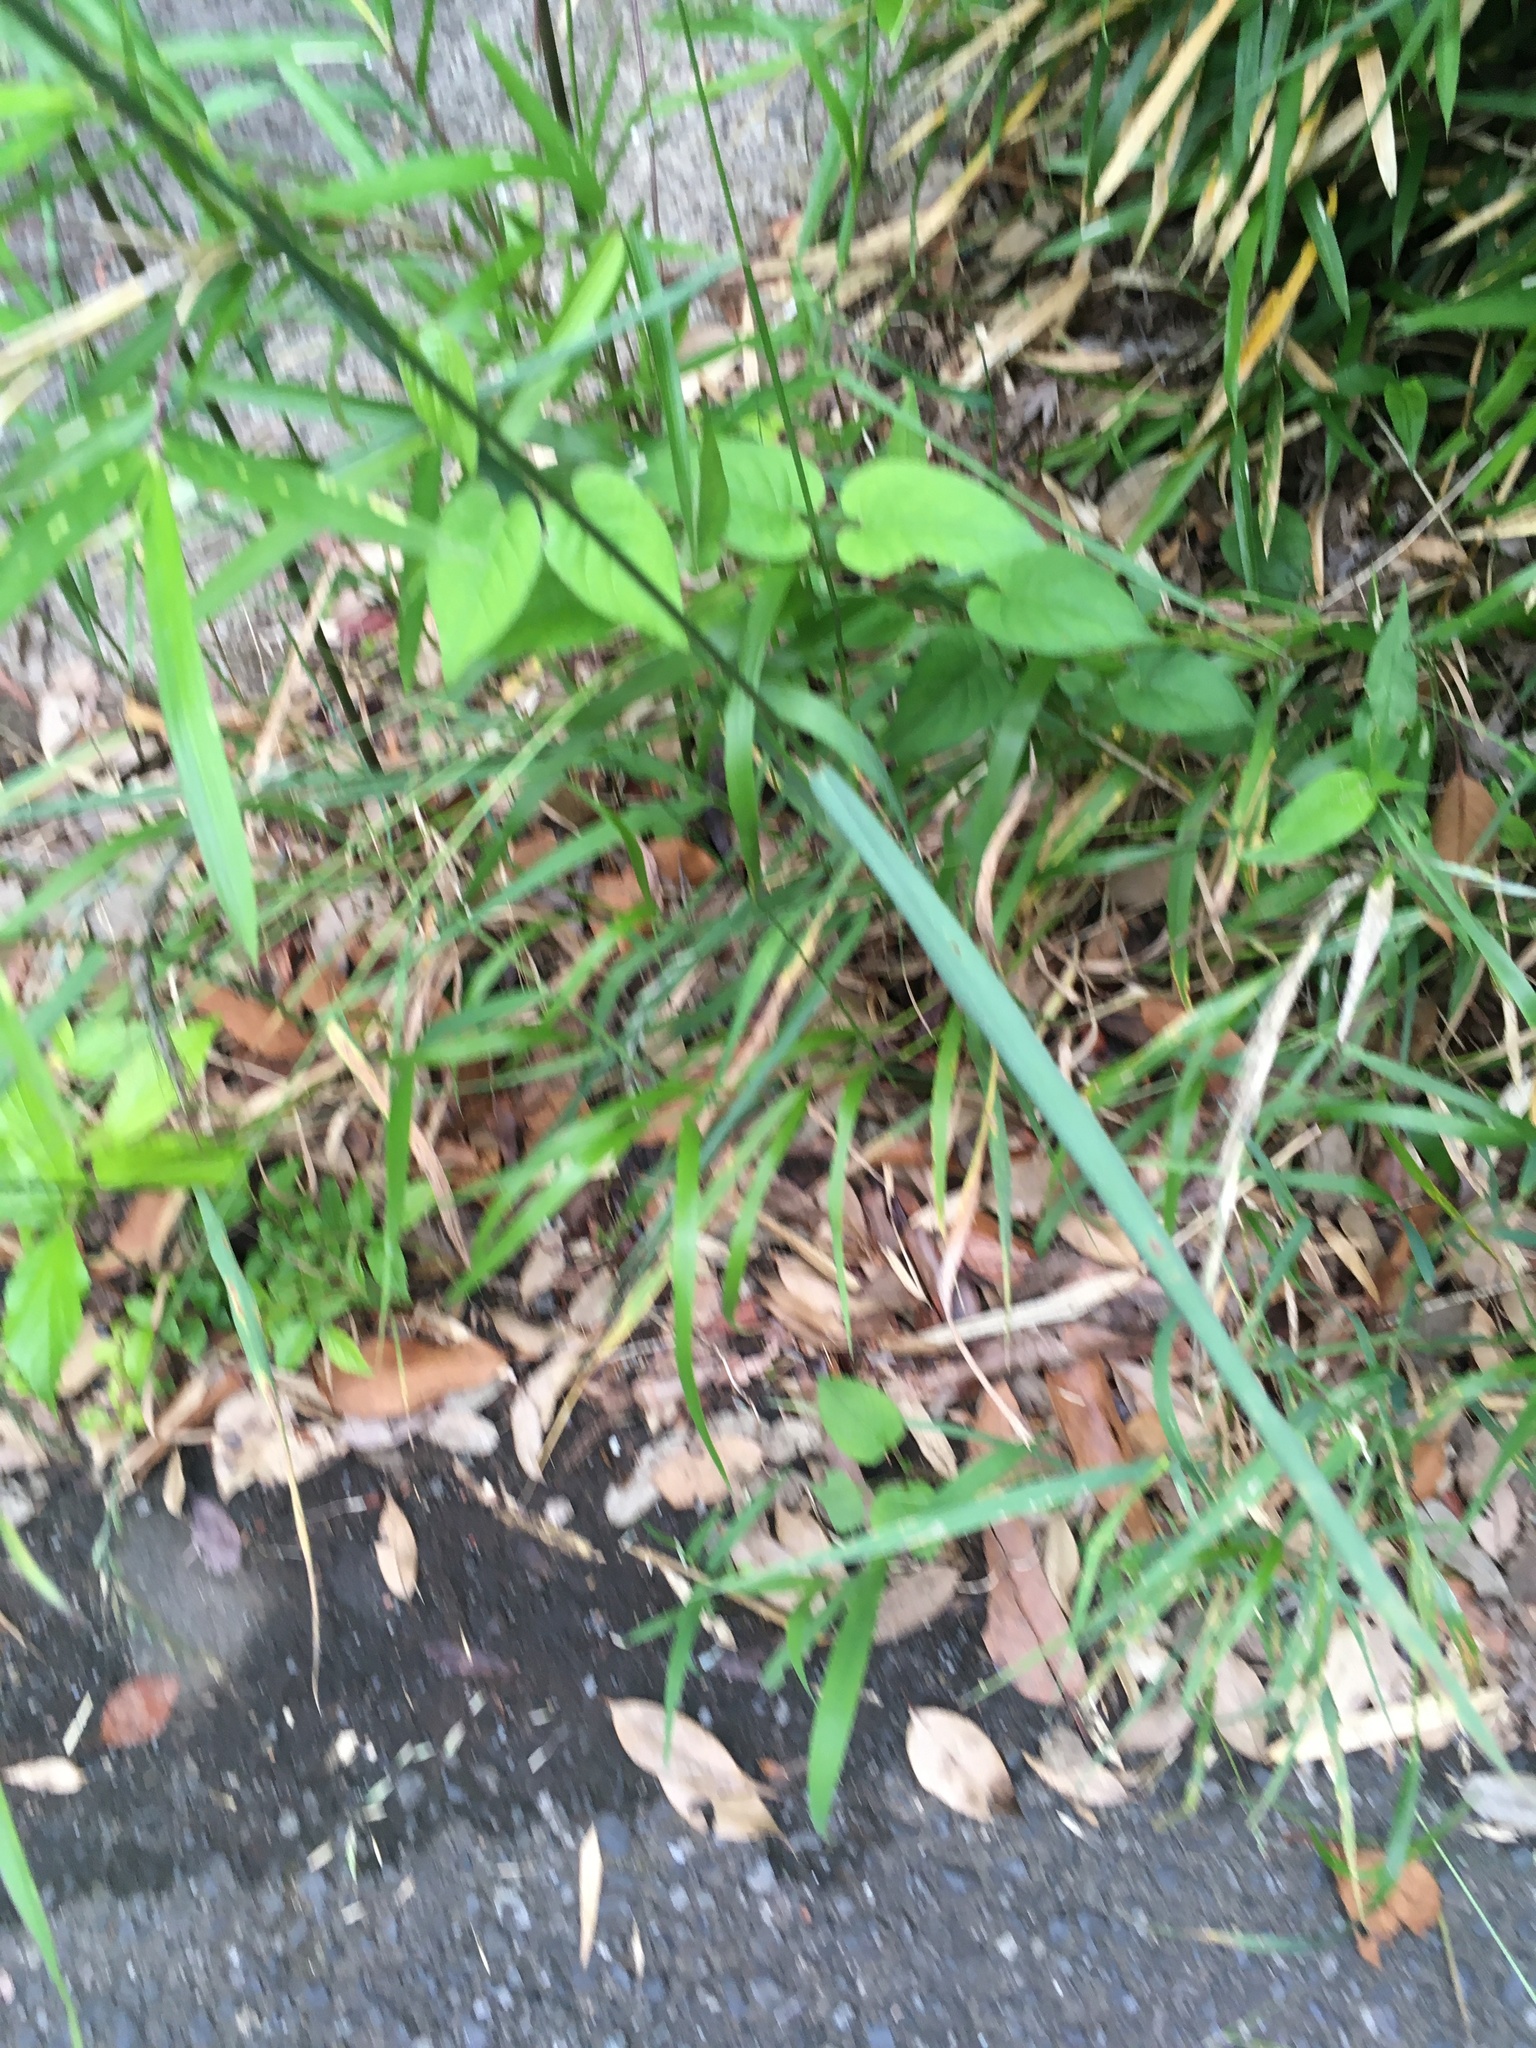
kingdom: Plantae
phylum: Tracheophyta
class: Liliopsida
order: Poales
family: Poaceae
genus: Elymus
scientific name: Elymus tsukushiensis
